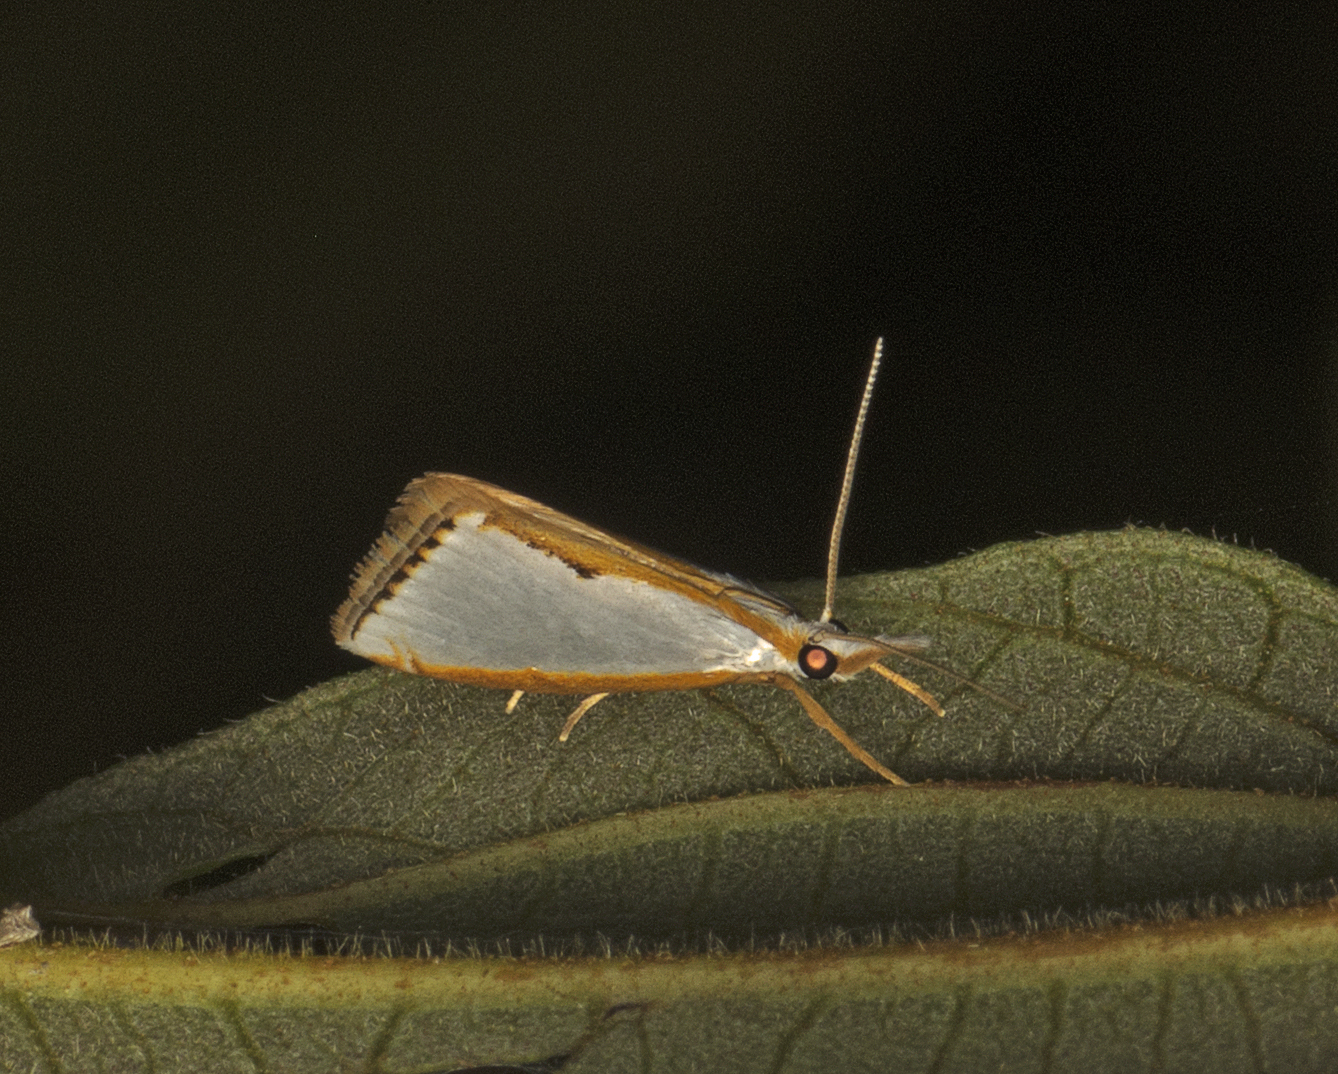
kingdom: Animalia
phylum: Arthropoda
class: Insecta
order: Lepidoptera
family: Crambidae
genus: Neargyria
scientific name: Neargyria argyraspis
